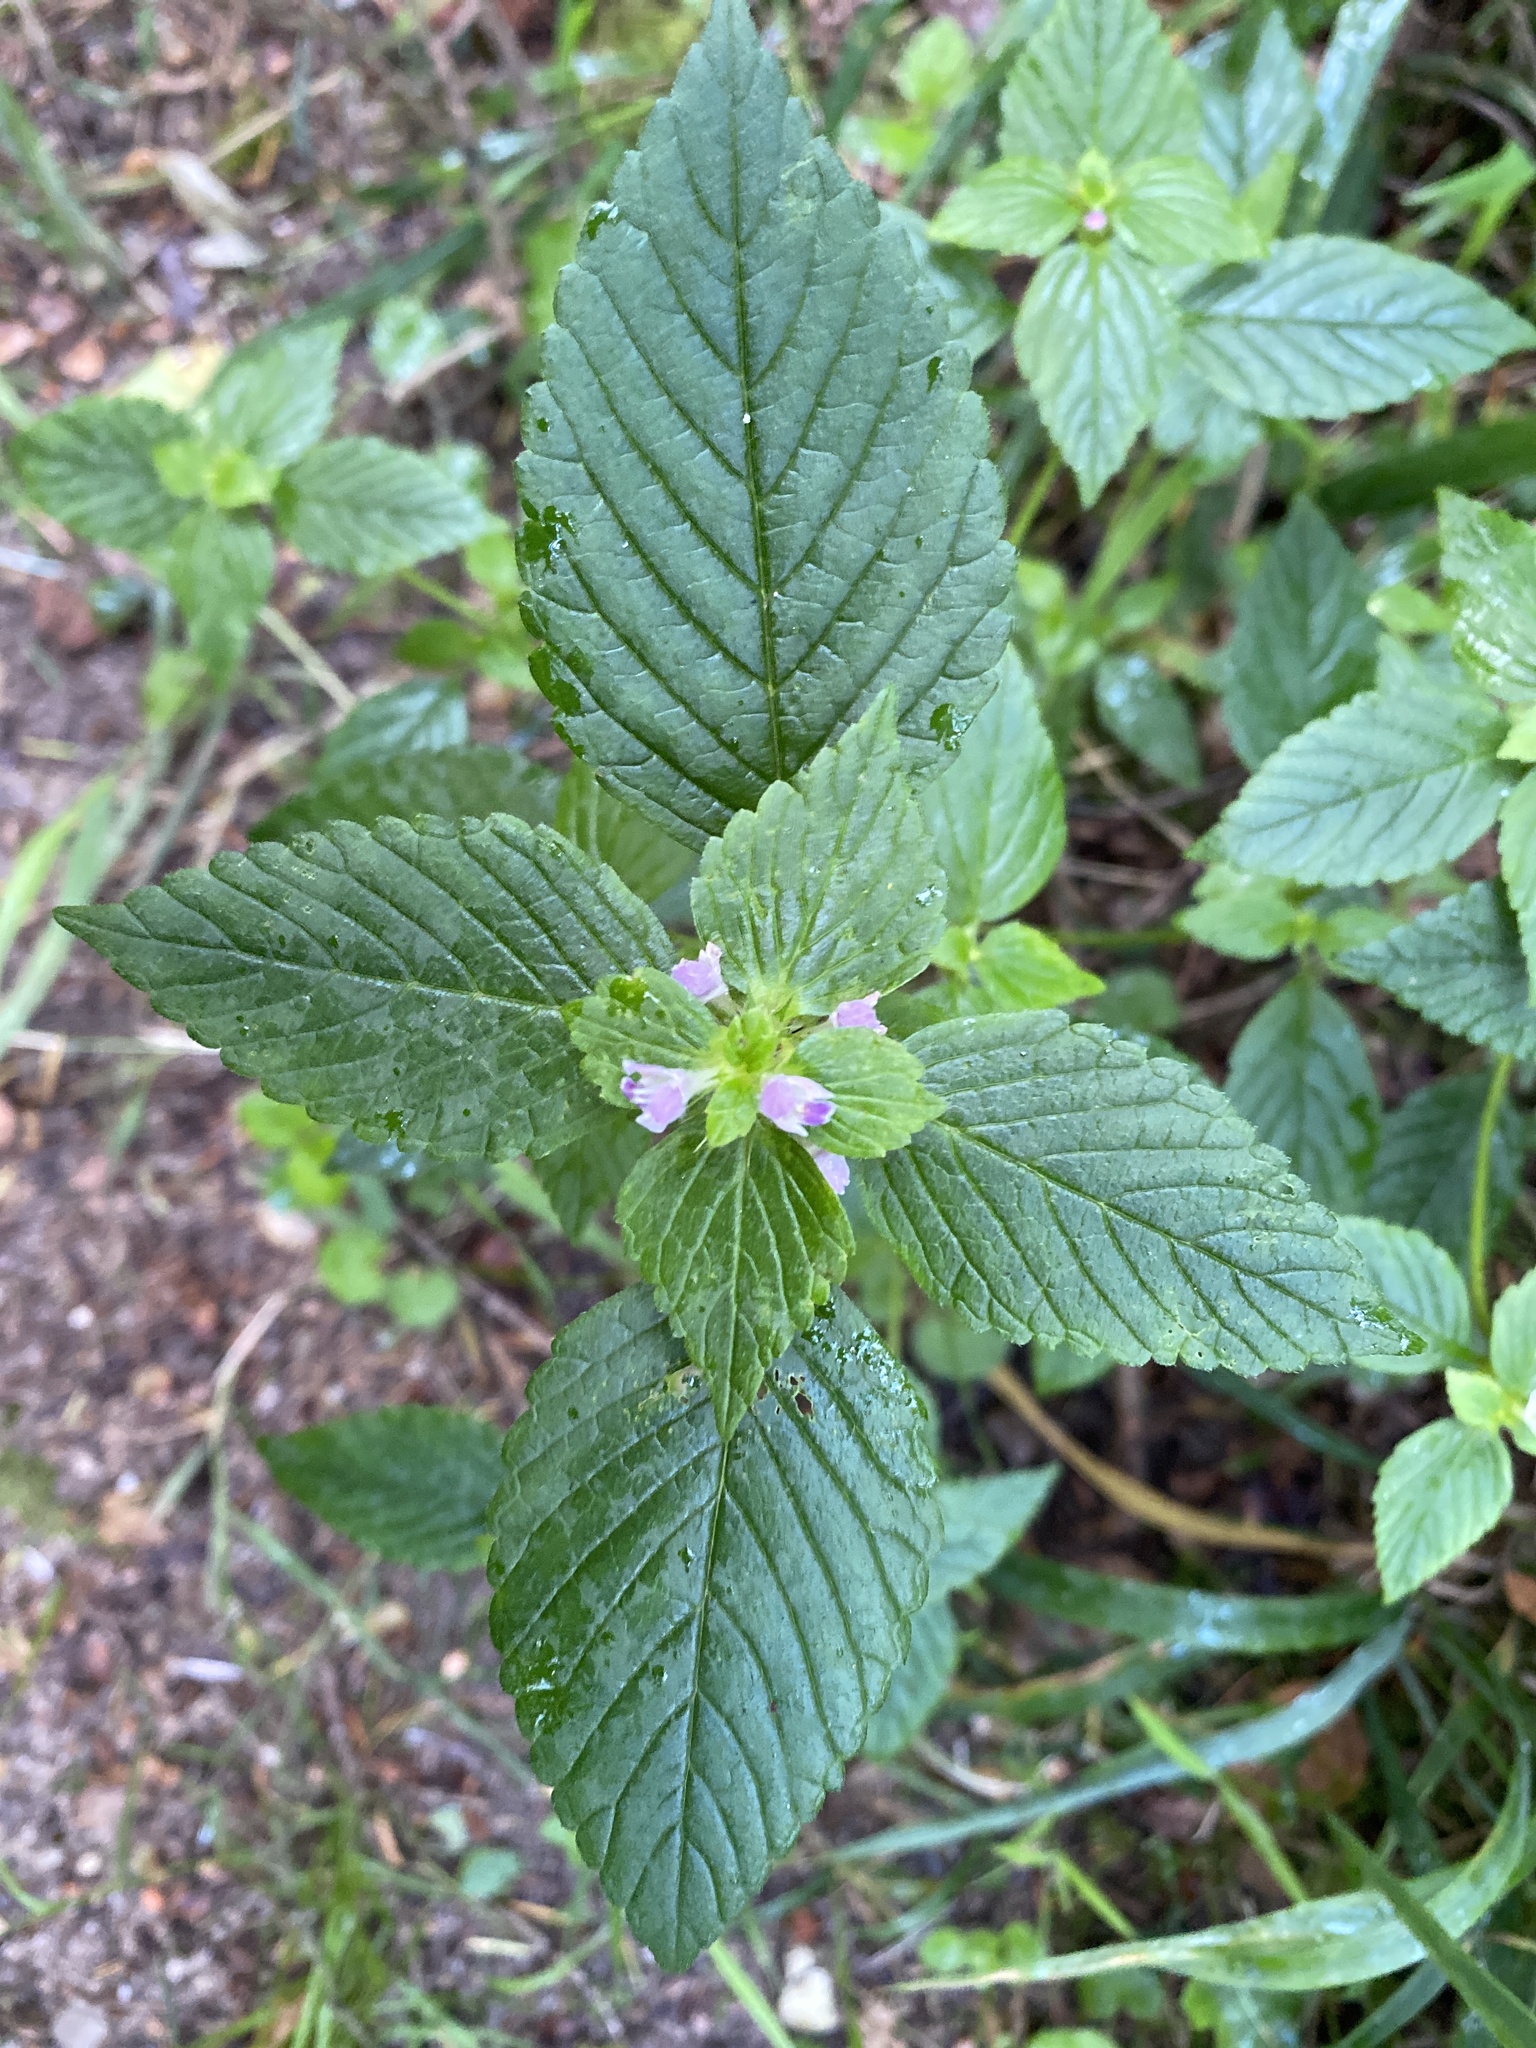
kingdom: Plantae
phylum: Tracheophyta
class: Magnoliopsida
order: Lamiales
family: Lamiaceae
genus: Galeopsis
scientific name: Galeopsis bifida
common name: Bifid hemp-nettle
